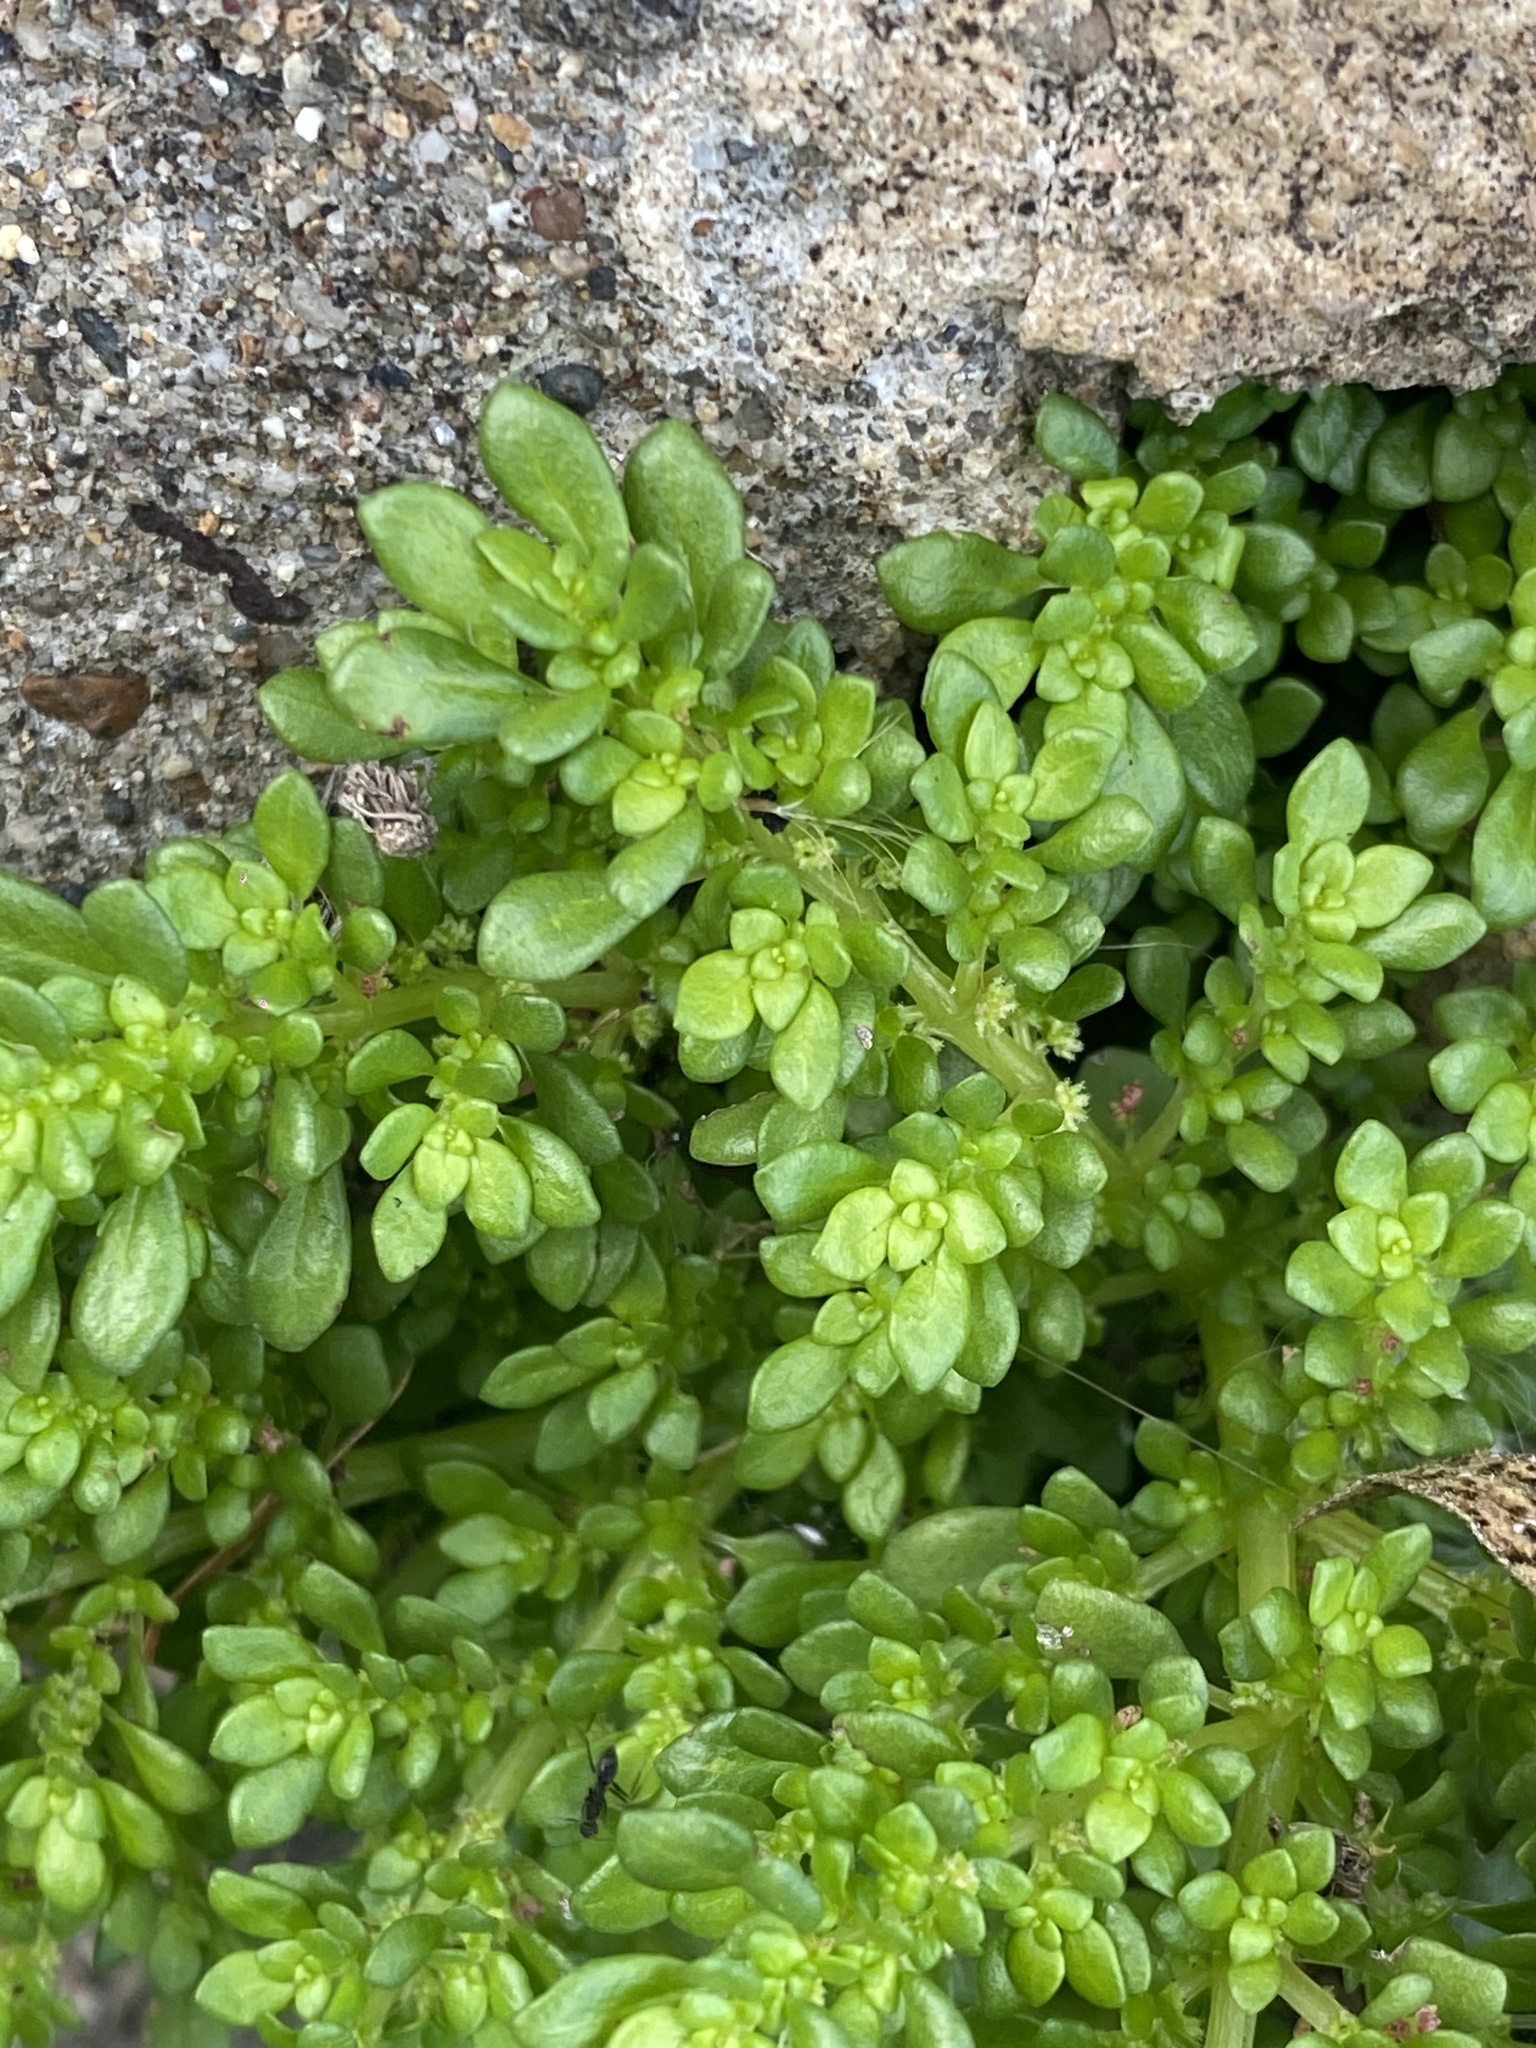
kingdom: Plantae
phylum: Tracheophyta
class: Magnoliopsida
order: Rosales
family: Urticaceae
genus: Pilea
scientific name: Pilea microphylla
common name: Artillery-plant
